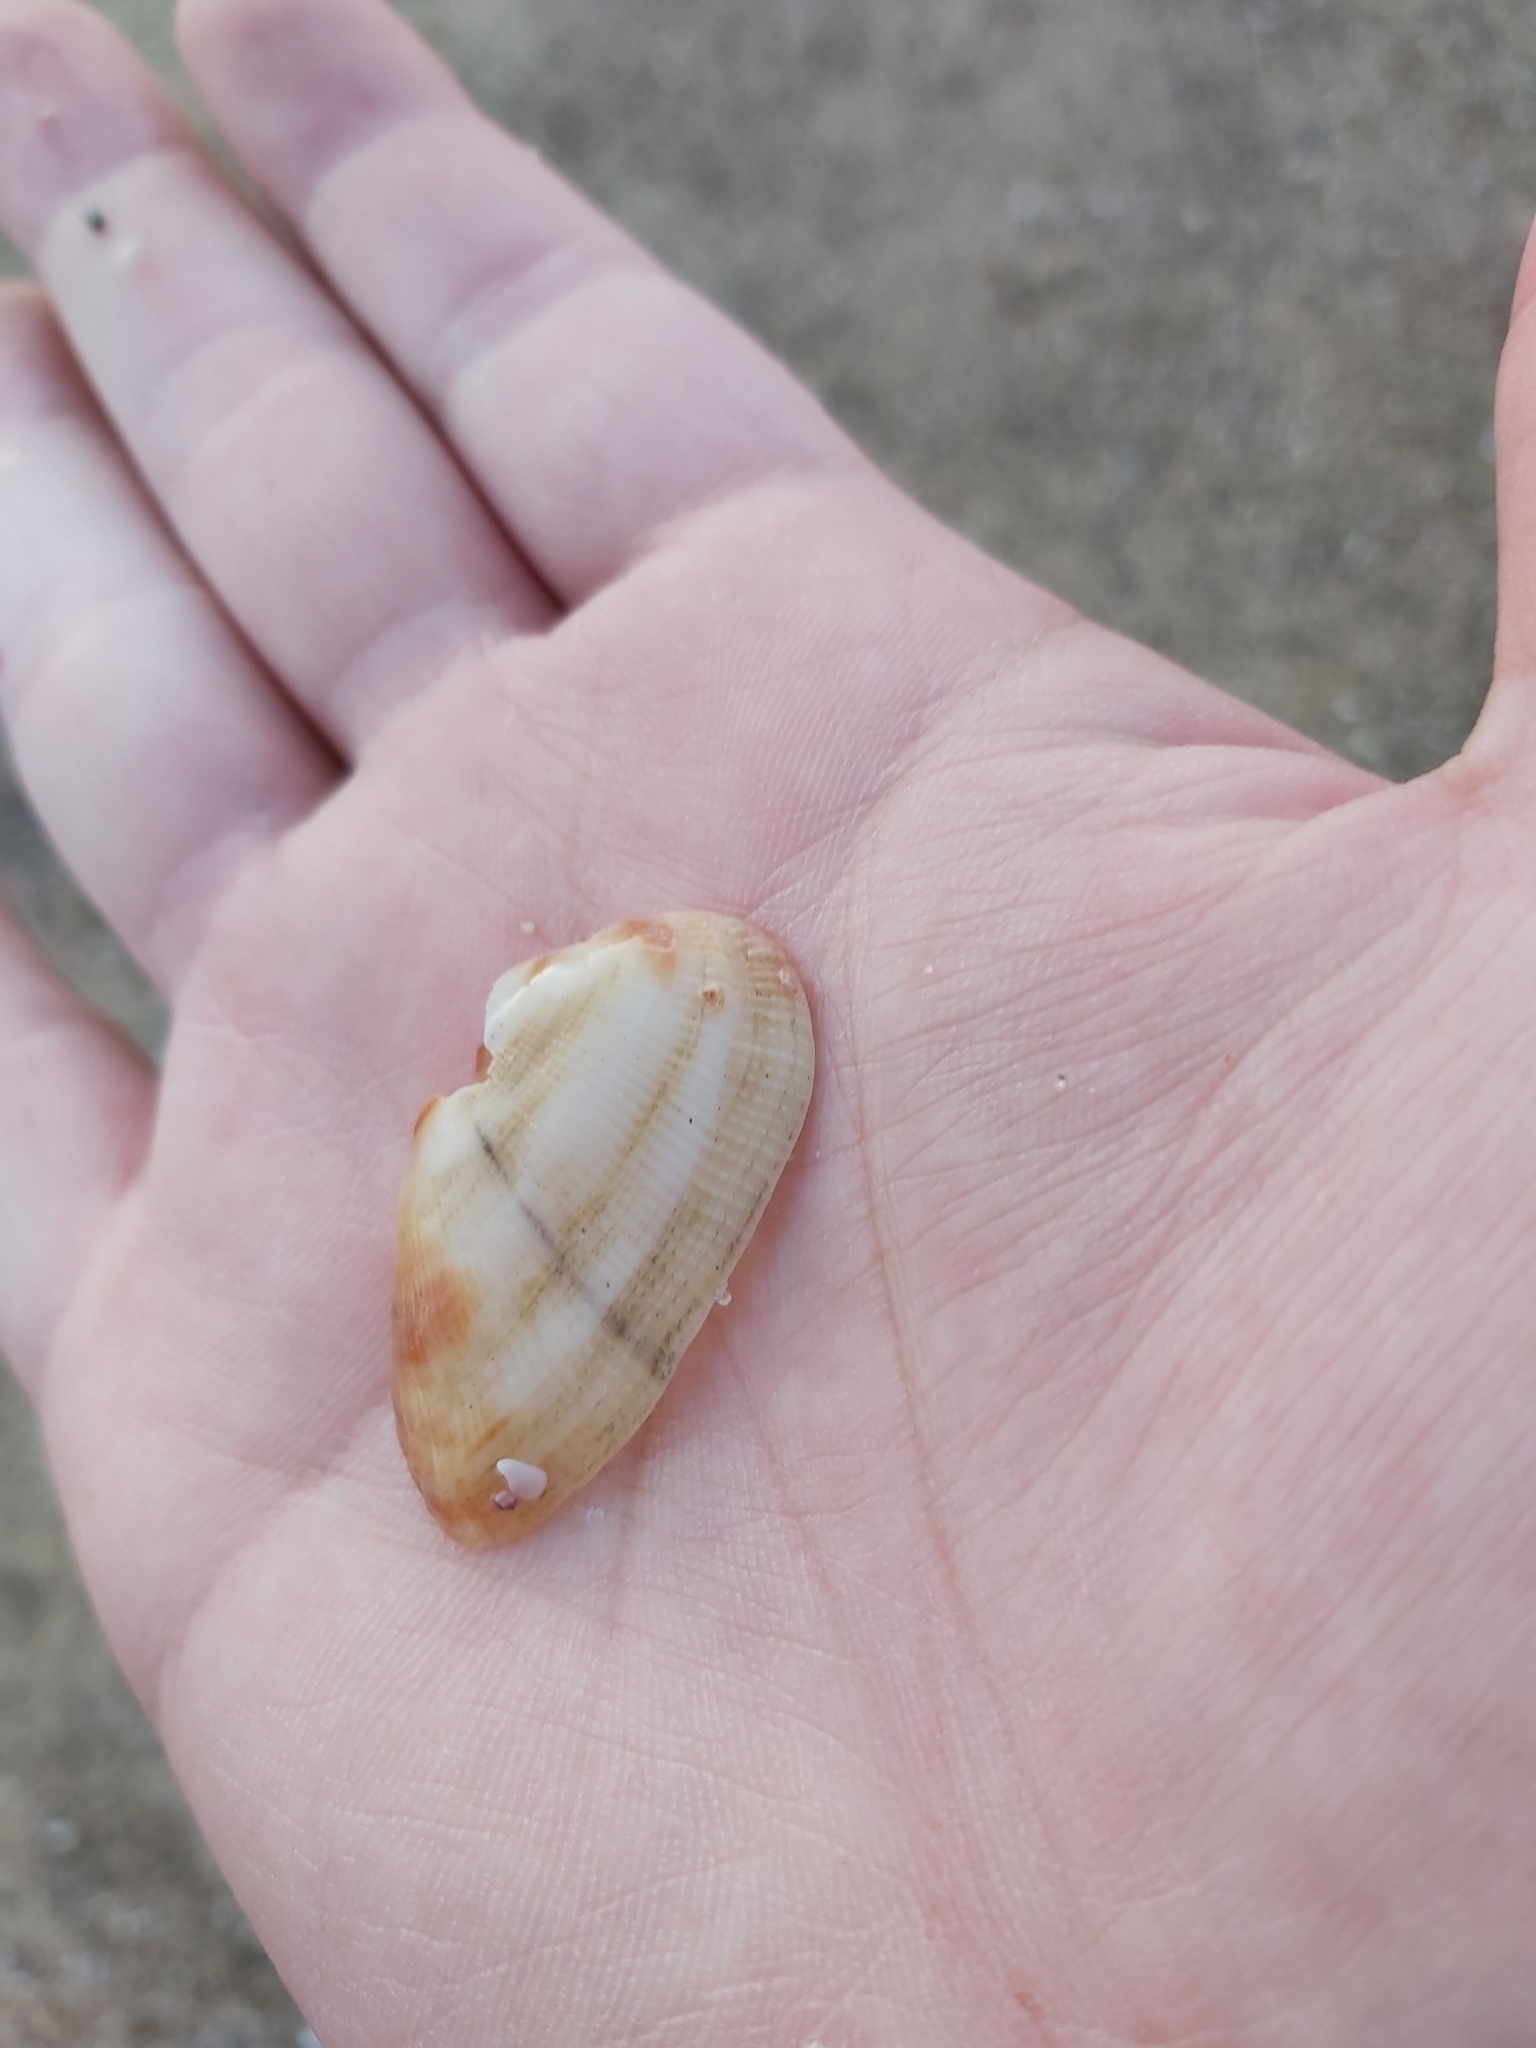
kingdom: Animalia
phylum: Mollusca
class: Bivalvia
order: Arcida
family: Arcidae
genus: Barbatia
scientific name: Barbatia pistachia
